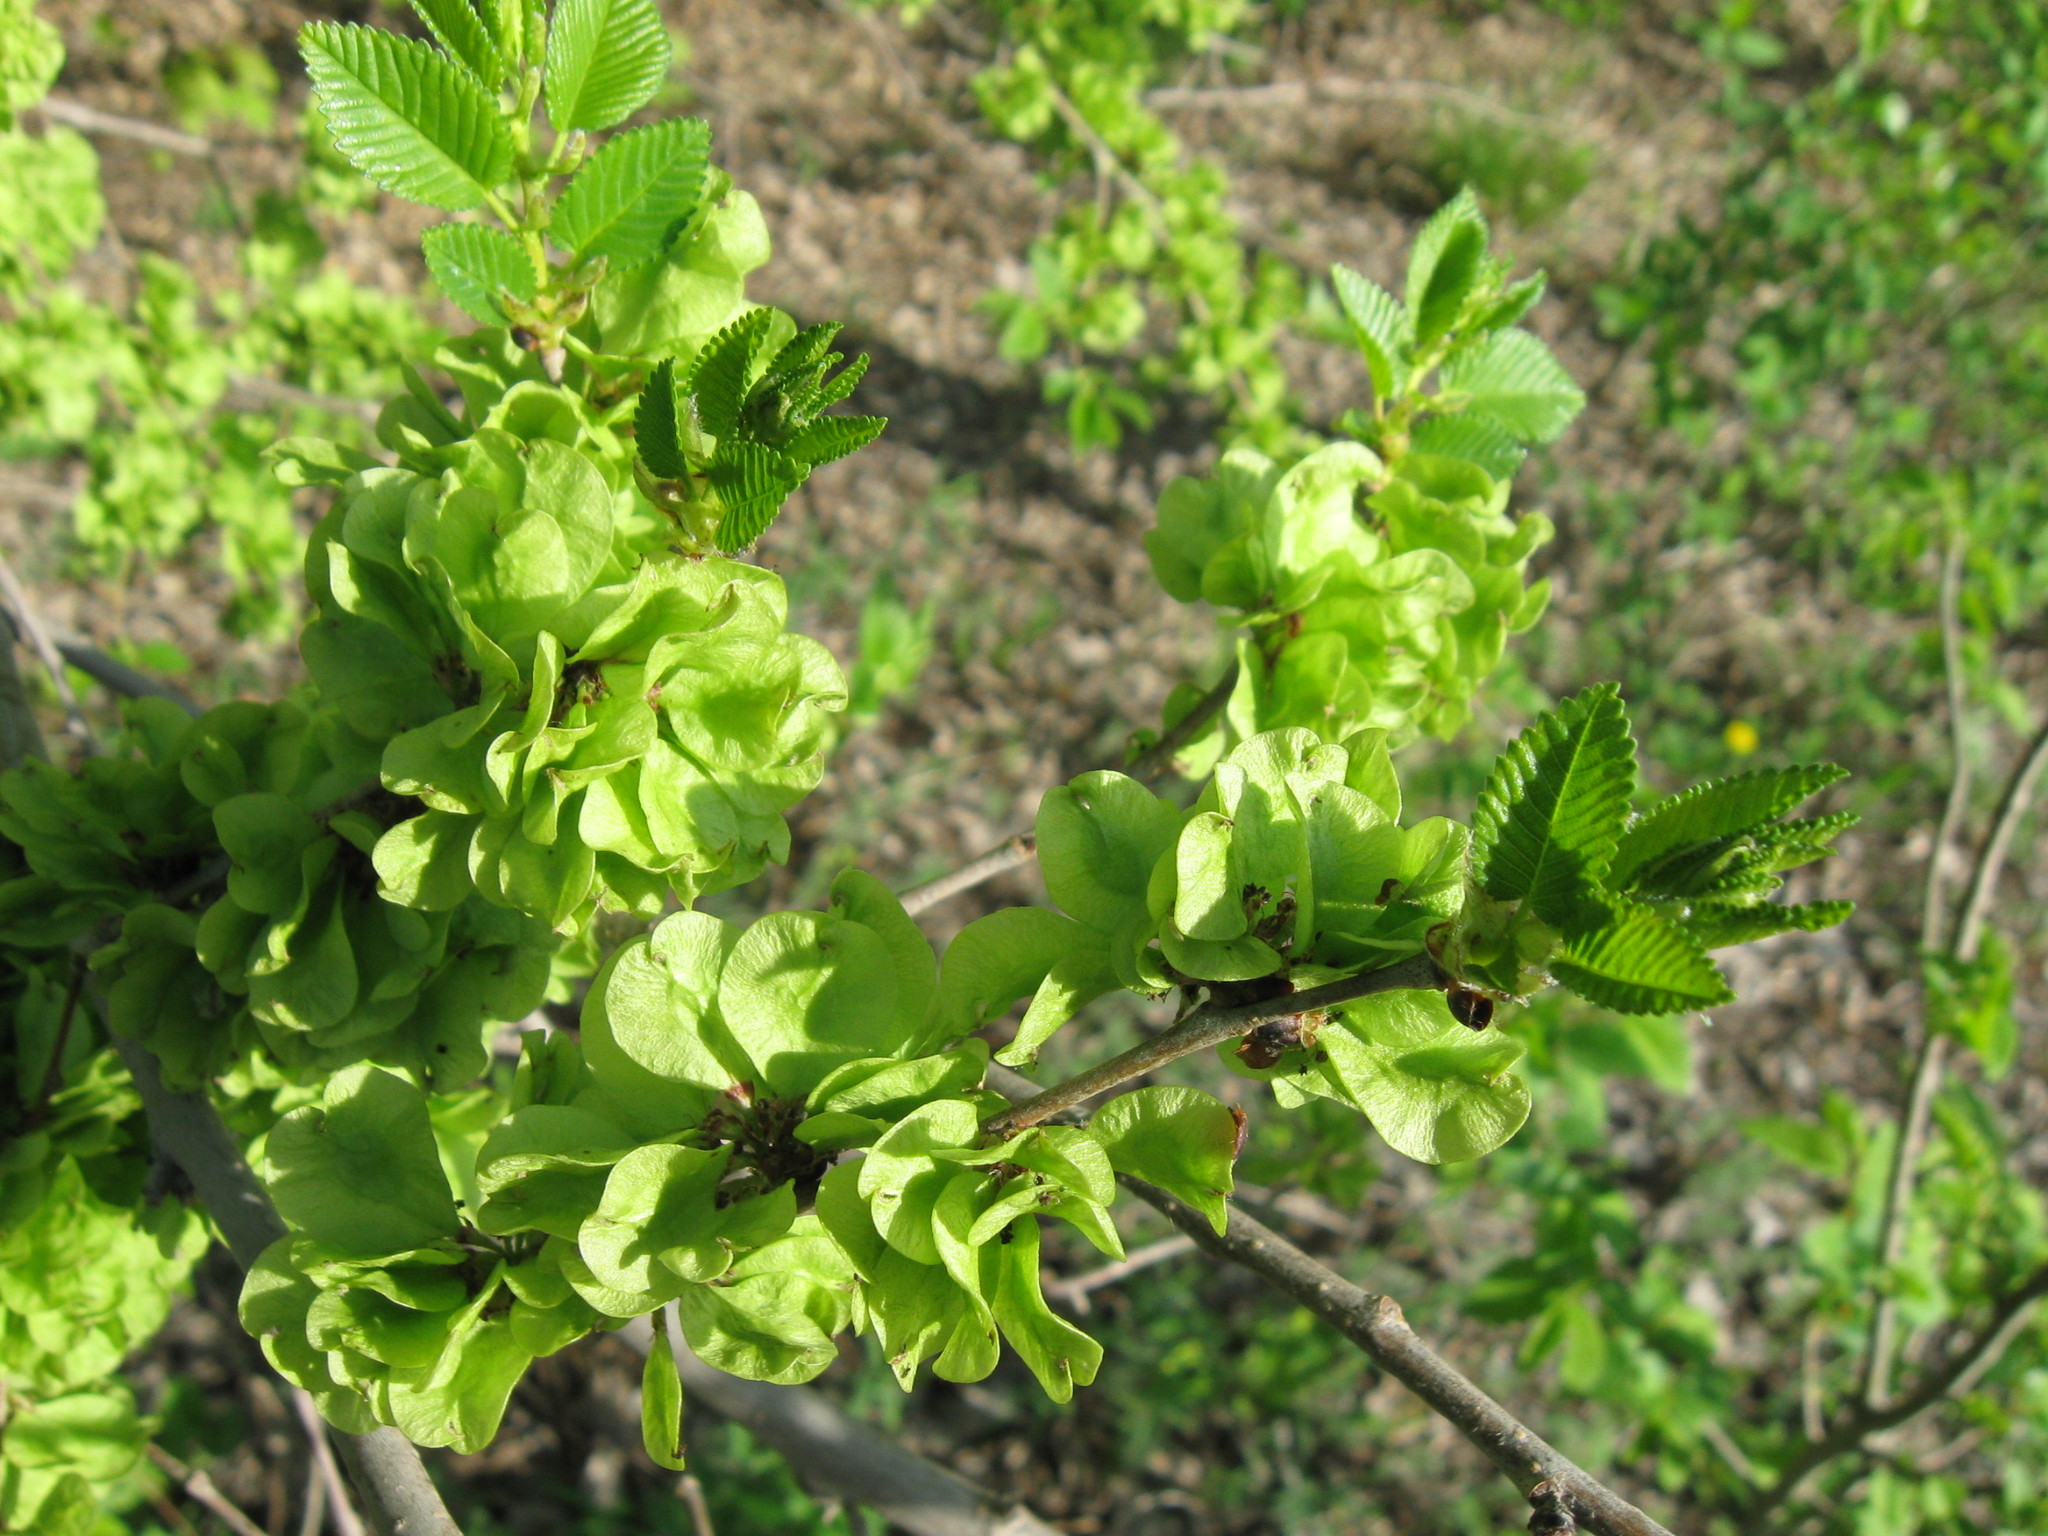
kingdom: Plantae
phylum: Tracheophyta
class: Magnoliopsida
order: Rosales
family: Ulmaceae
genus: Ulmus
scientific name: Ulmus pumila
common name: Siberian elm
